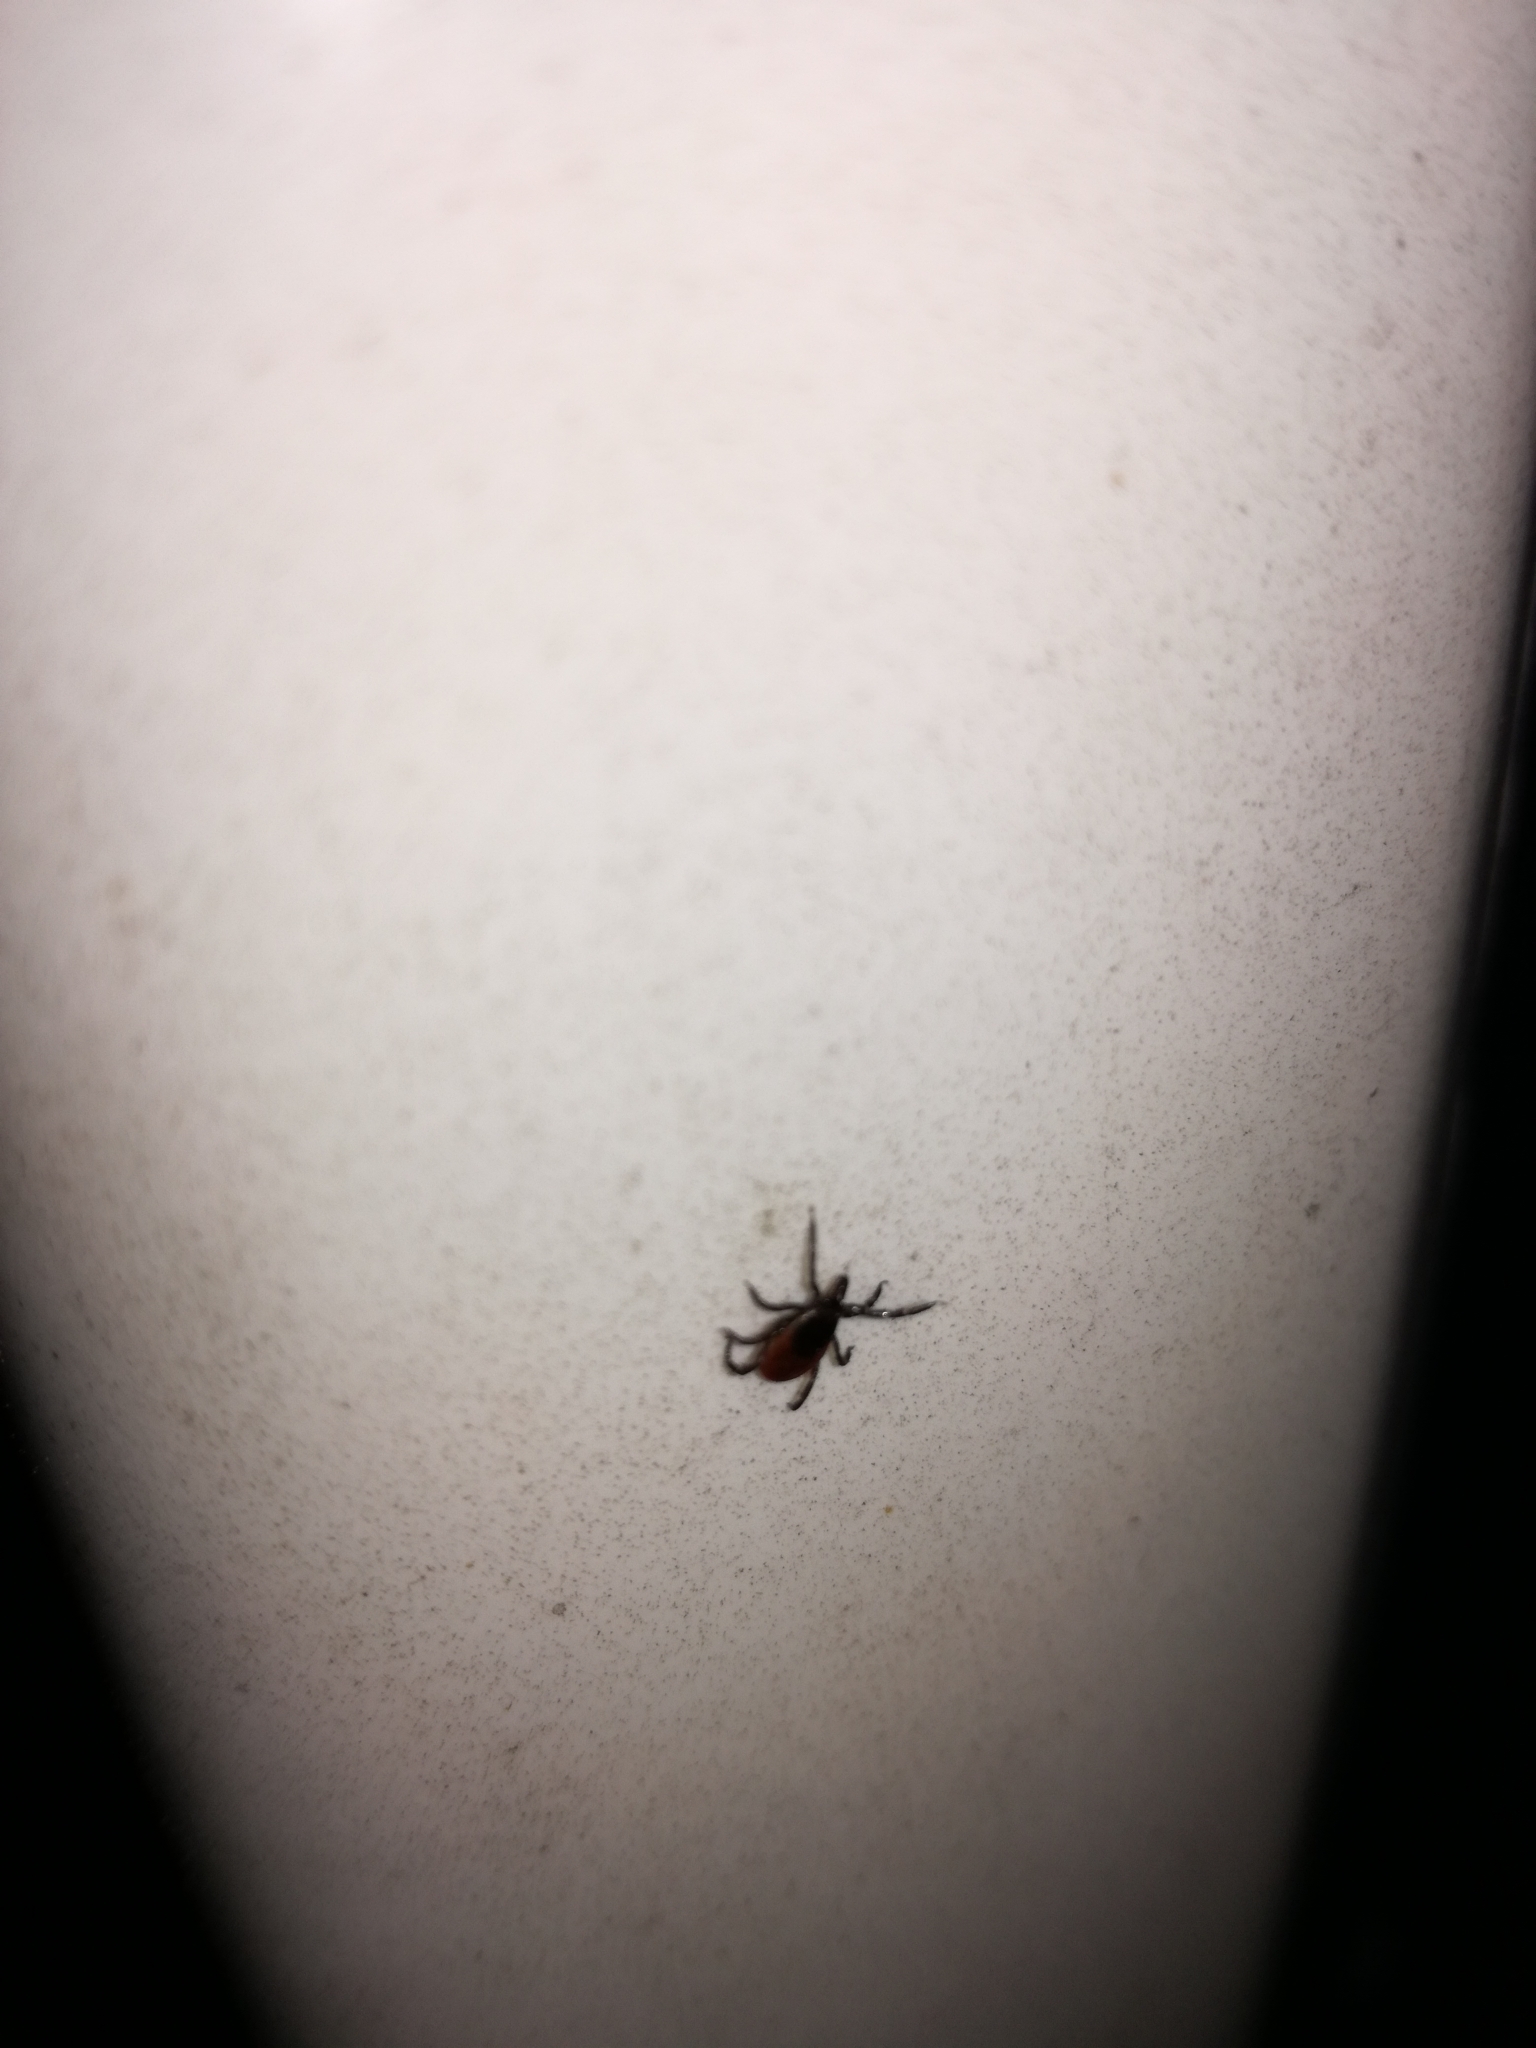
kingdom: Animalia
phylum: Arthropoda
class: Arachnida
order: Ixodida
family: Ixodidae
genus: Ixodes
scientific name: Ixodes scapularis
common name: Black legged tick
